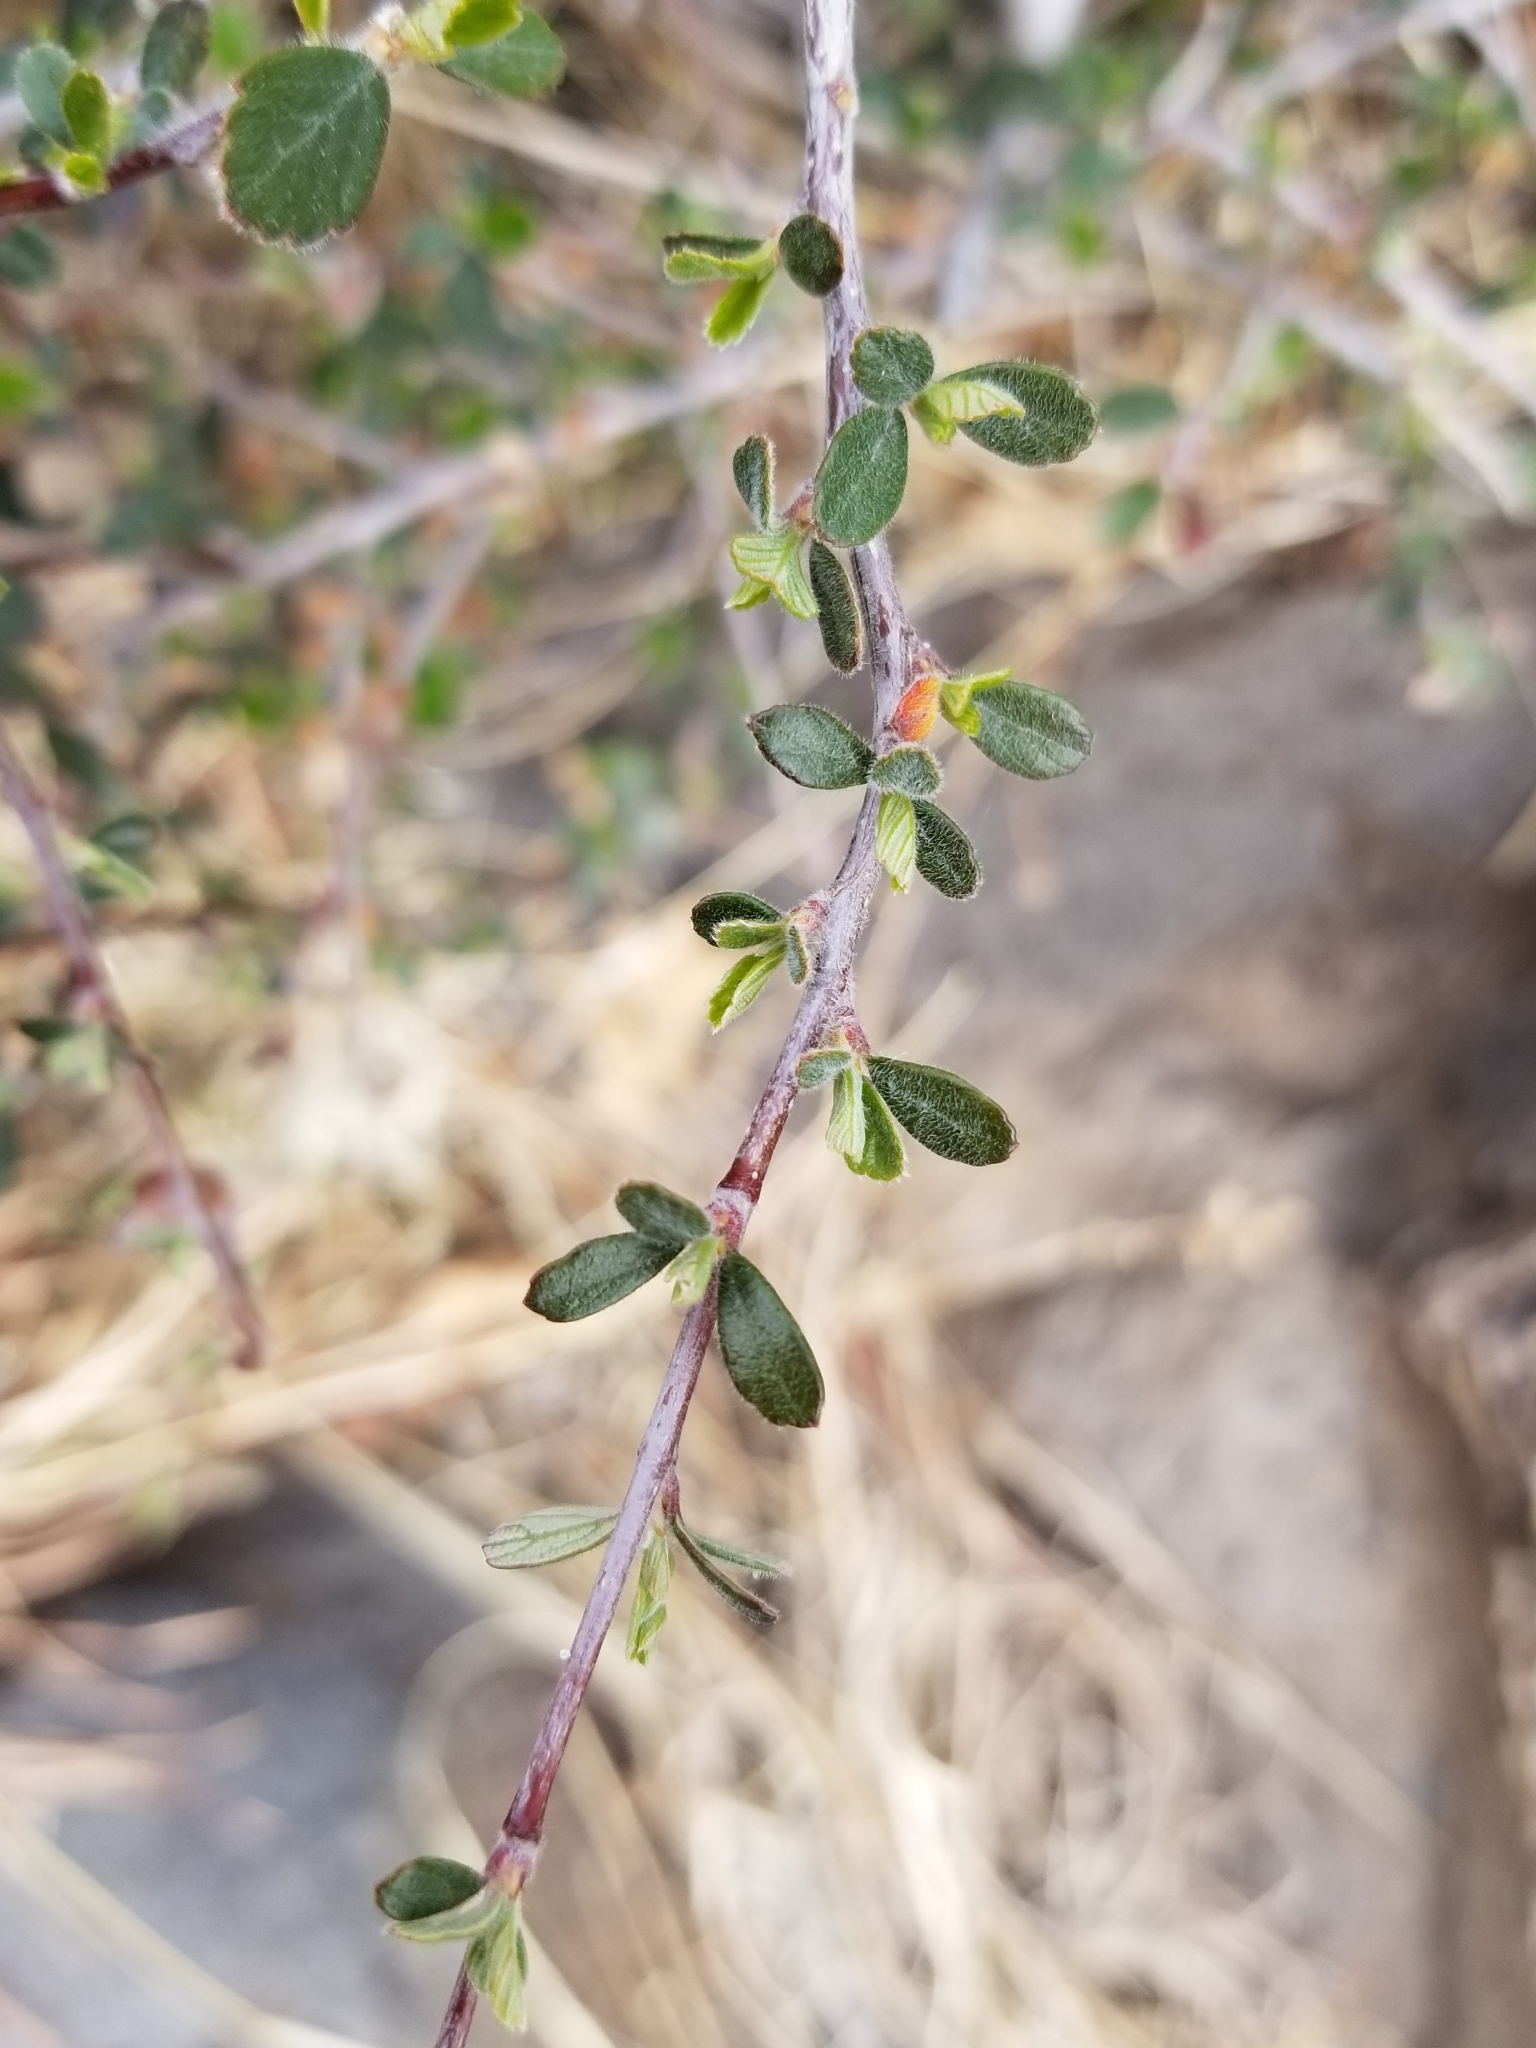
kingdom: Plantae
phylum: Tracheophyta
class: Magnoliopsida
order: Rosales
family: Rosaceae
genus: Cercocarpus
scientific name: Cercocarpus montanus
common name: Alder-leaf cercocarpus
